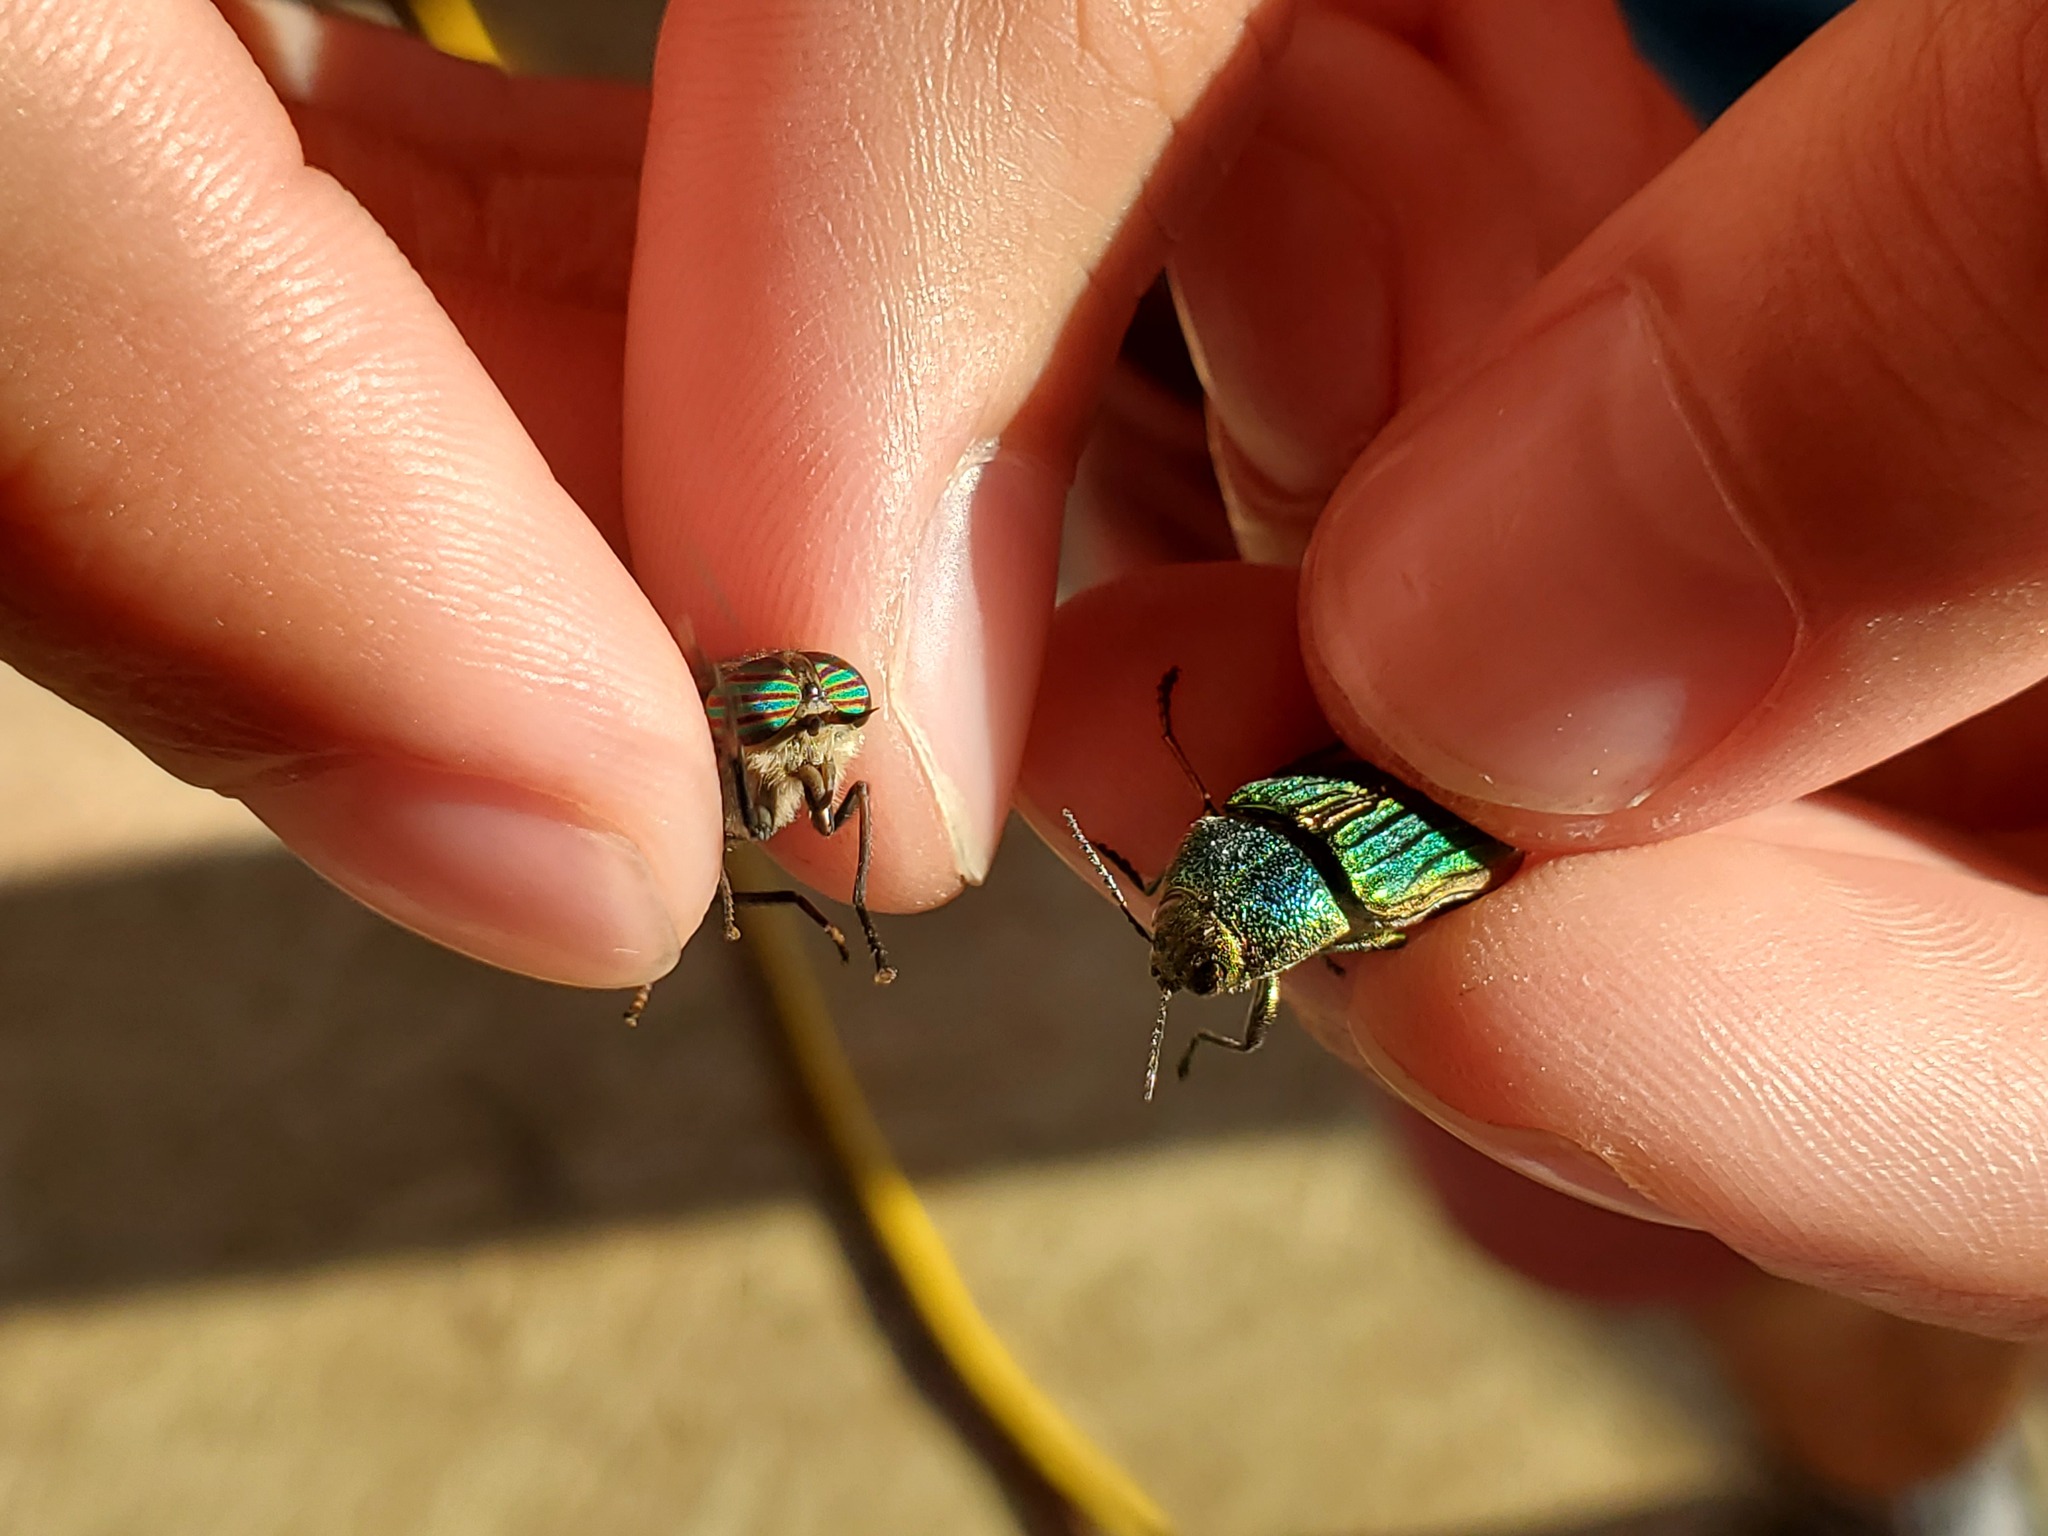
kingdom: Animalia
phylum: Arthropoda
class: Insecta
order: Coleoptera
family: Buprestidae
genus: Buprestis
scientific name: Buprestis aurulenta
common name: Golden buprestid
